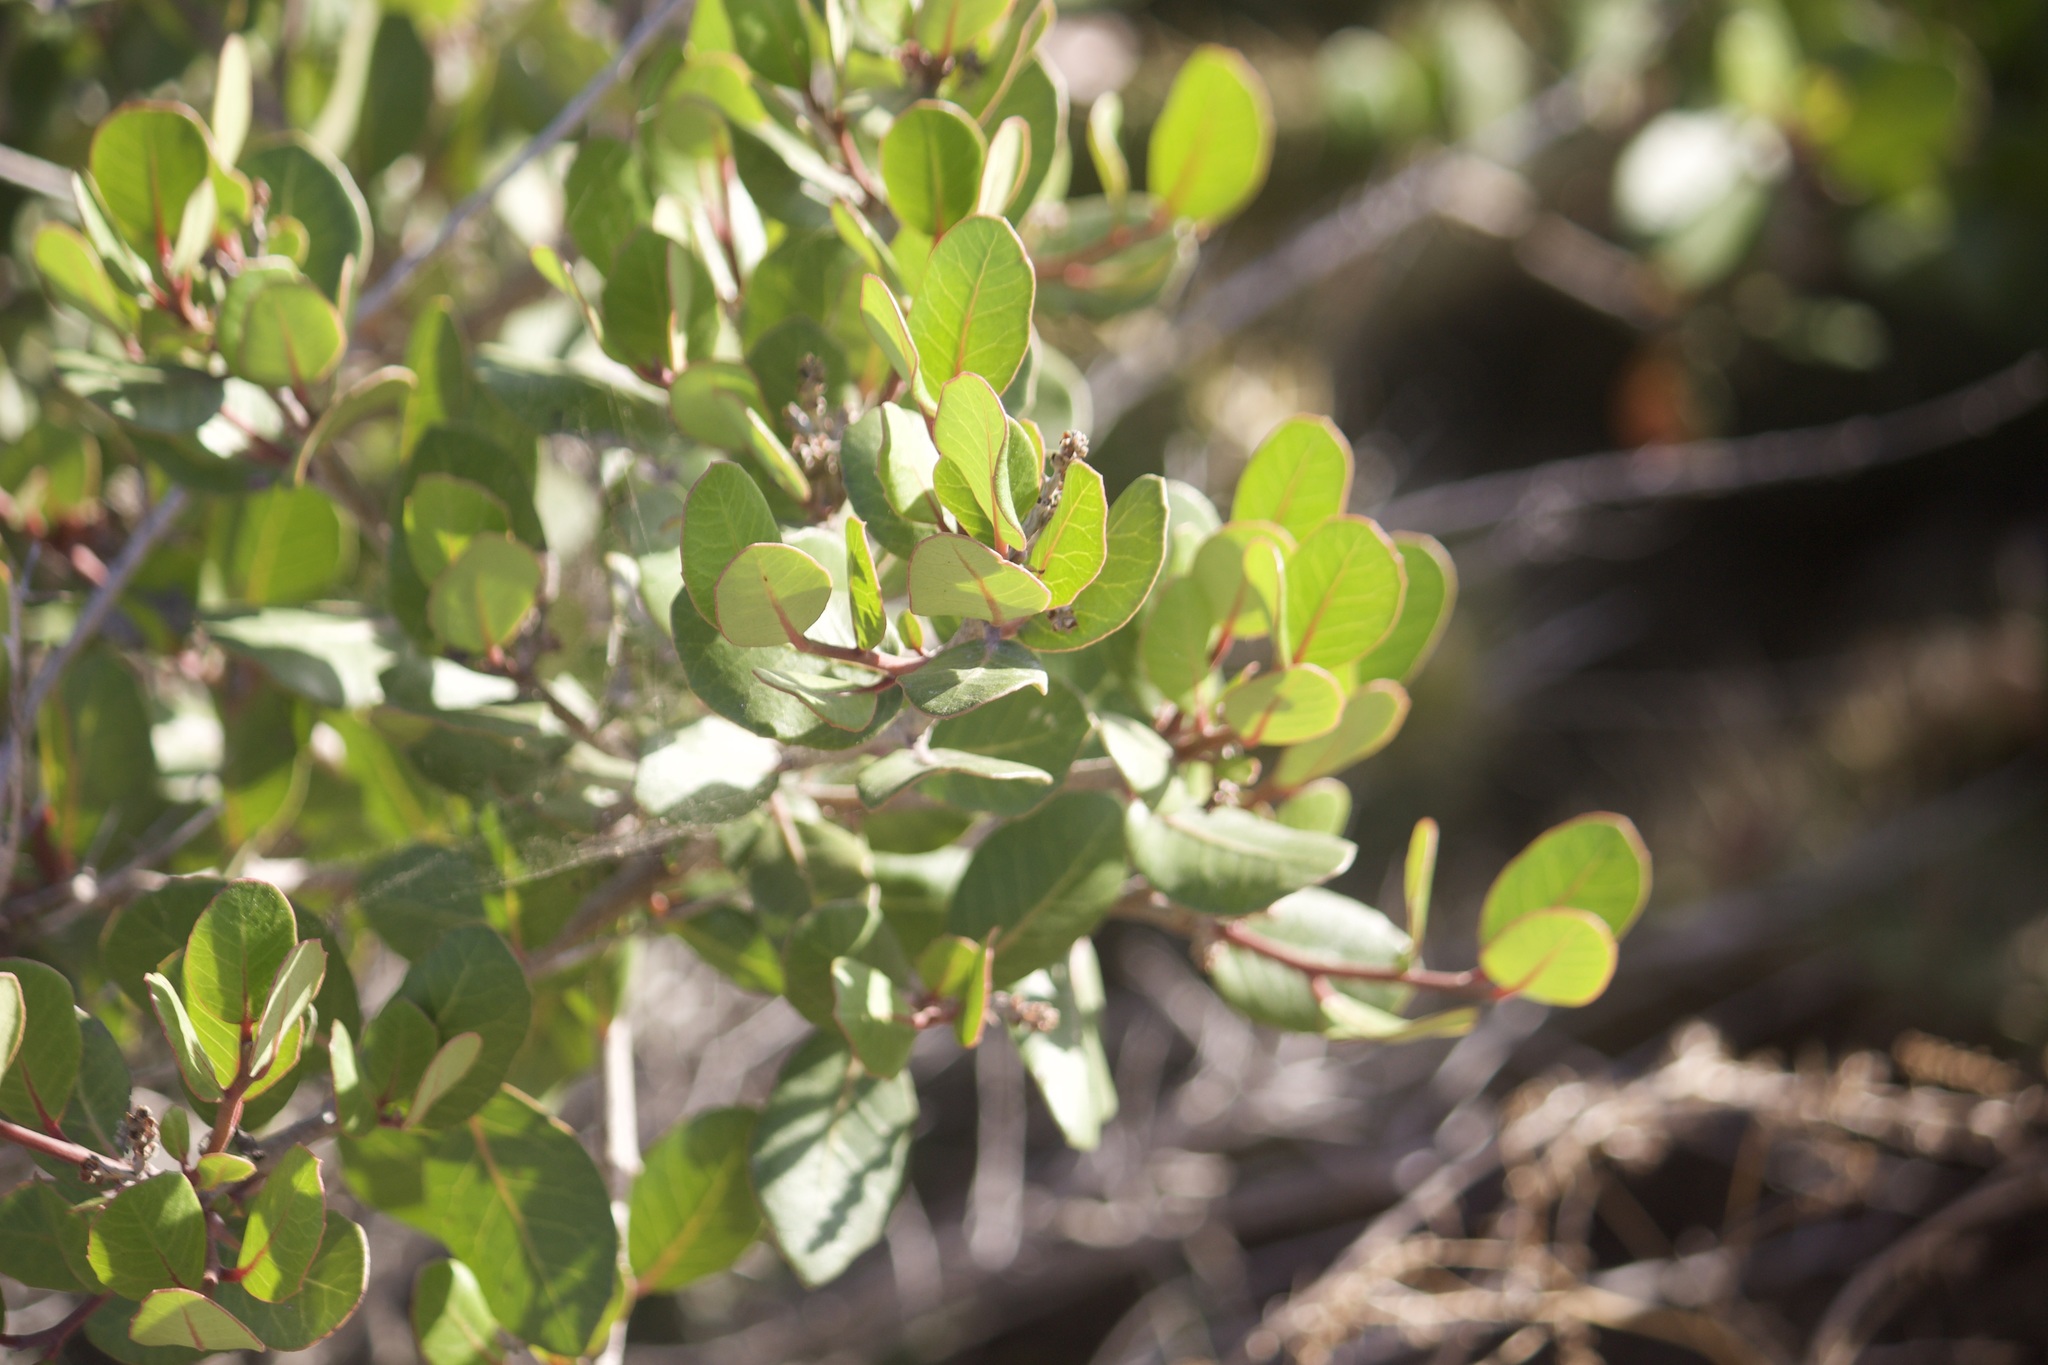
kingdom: Plantae
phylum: Tracheophyta
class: Magnoliopsida
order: Sapindales
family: Anacardiaceae
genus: Rhus
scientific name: Rhus integrifolia
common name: Lemonade sumac
